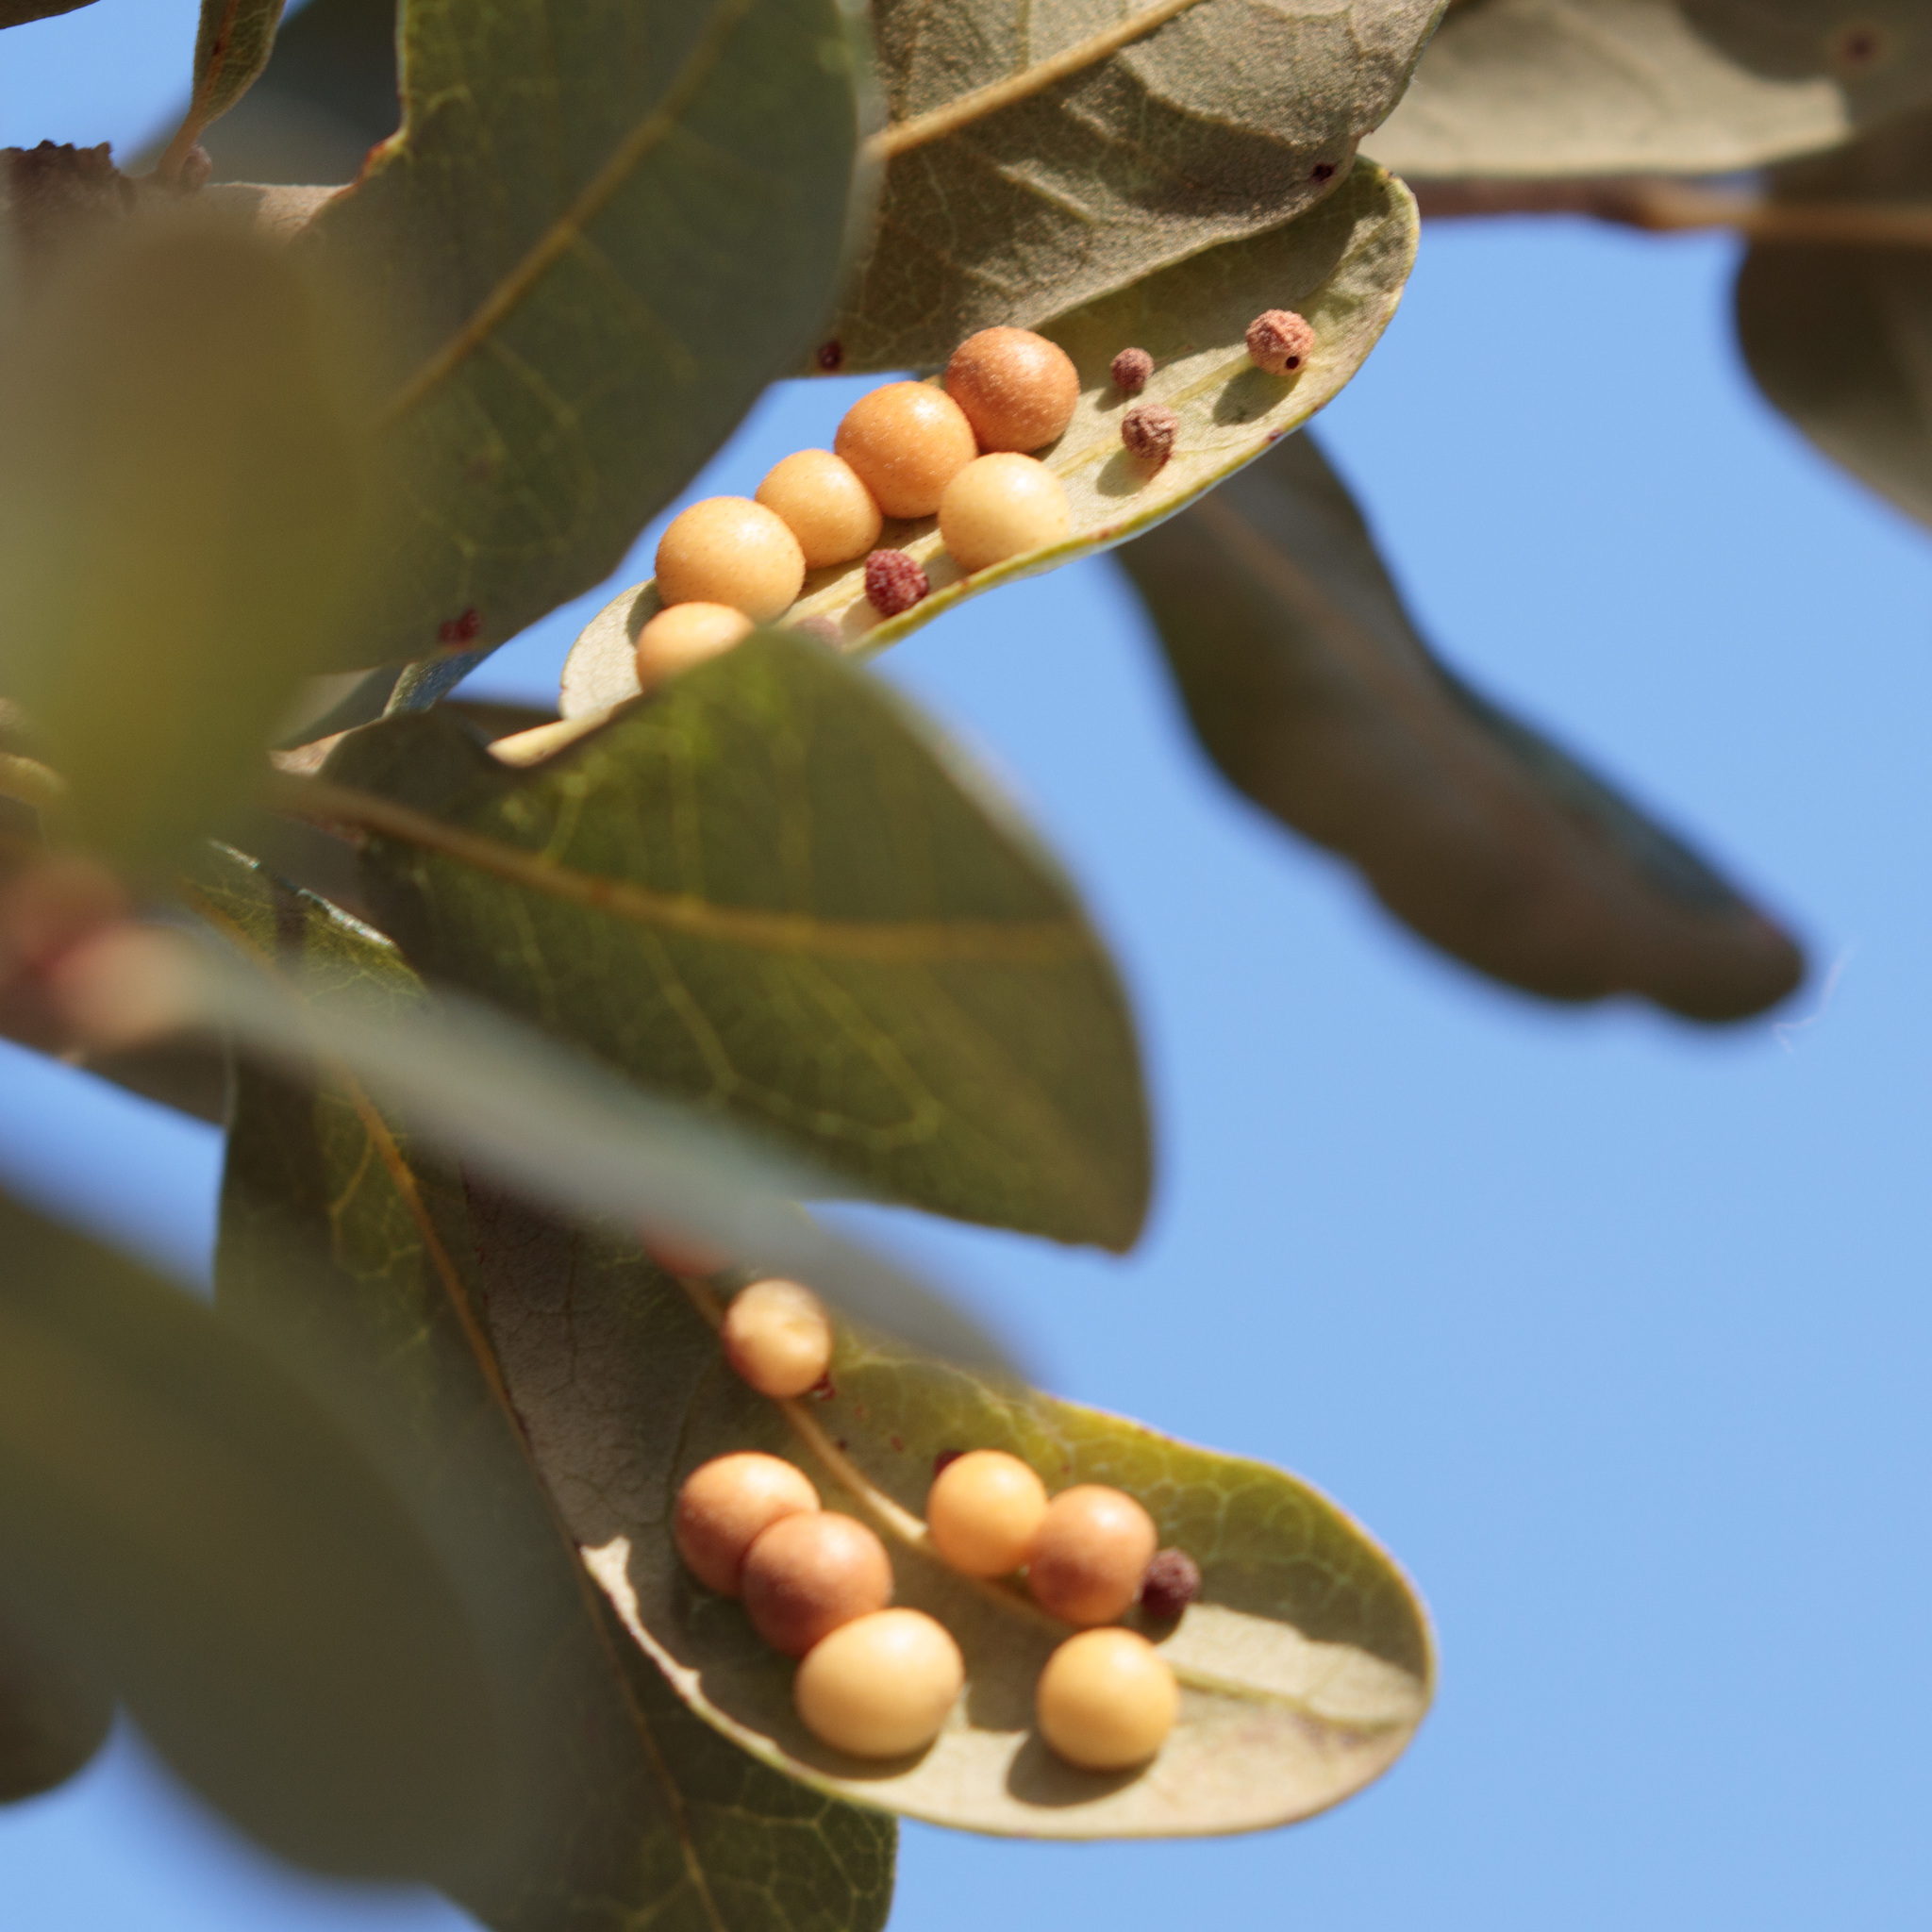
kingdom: Animalia
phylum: Arthropoda
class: Insecta
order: Hymenoptera
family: Cynipidae
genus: Belonocnema
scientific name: Belonocnema kinseyi
